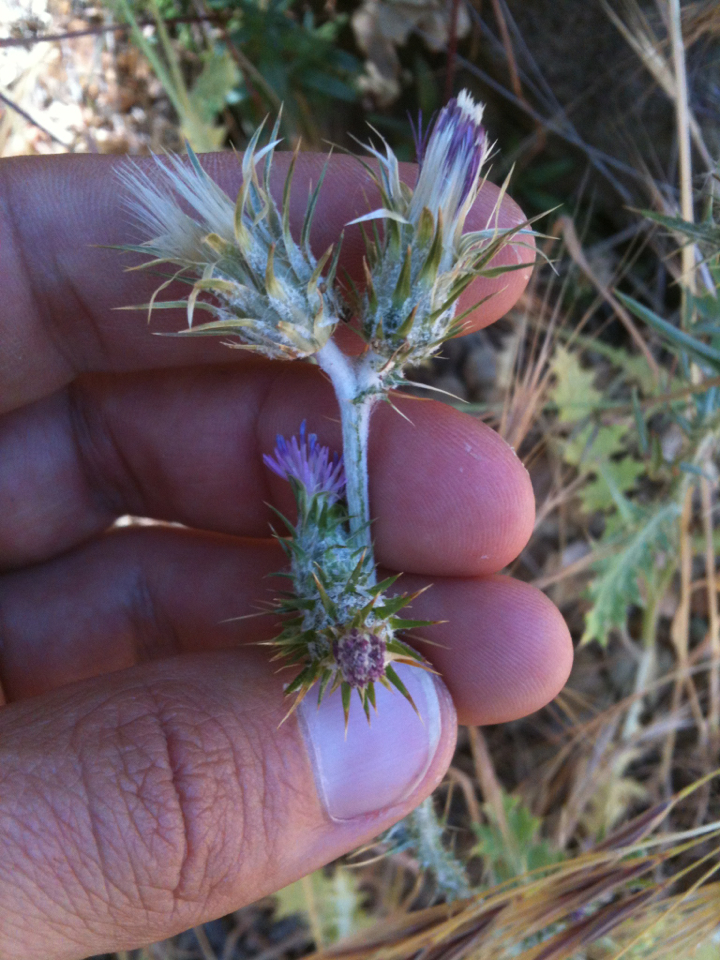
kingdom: Plantae
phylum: Tracheophyta
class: Magnoliopsida
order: Asterales
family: Asteraceae
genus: Carduus
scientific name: Carduus pycnocephalus
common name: Plymouth thistle
